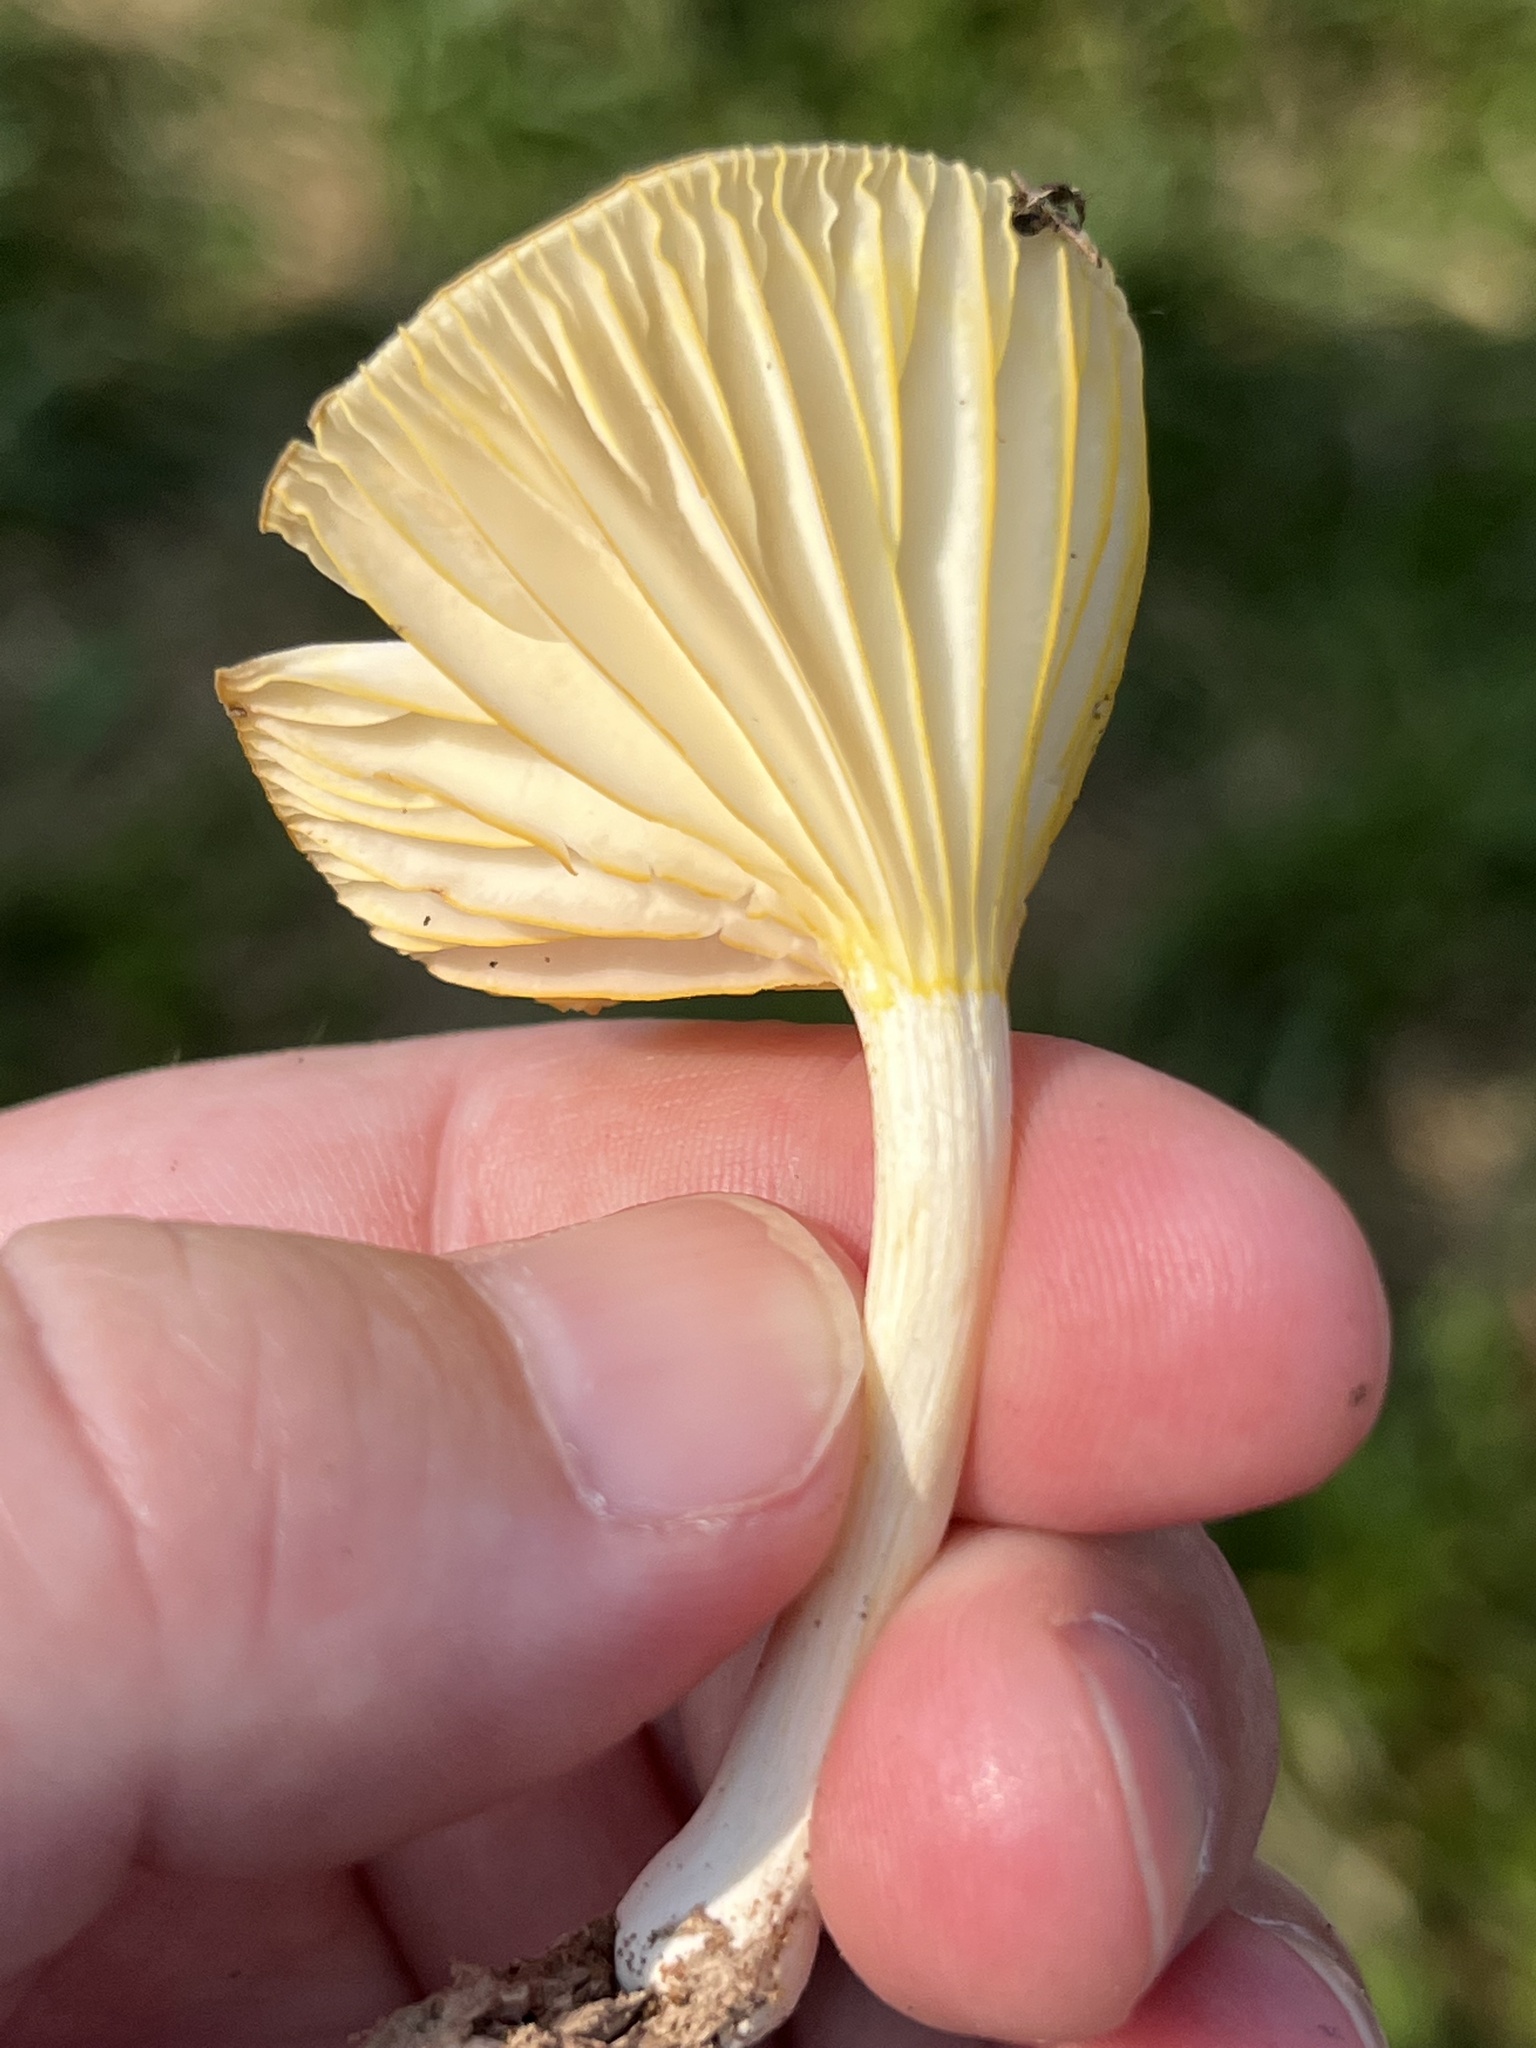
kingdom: Fungi
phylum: Basidiomycota
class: Agaricomycetes
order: Agaricales
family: Marasmiaceae
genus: Gerronema
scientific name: Gerronema strombodes
